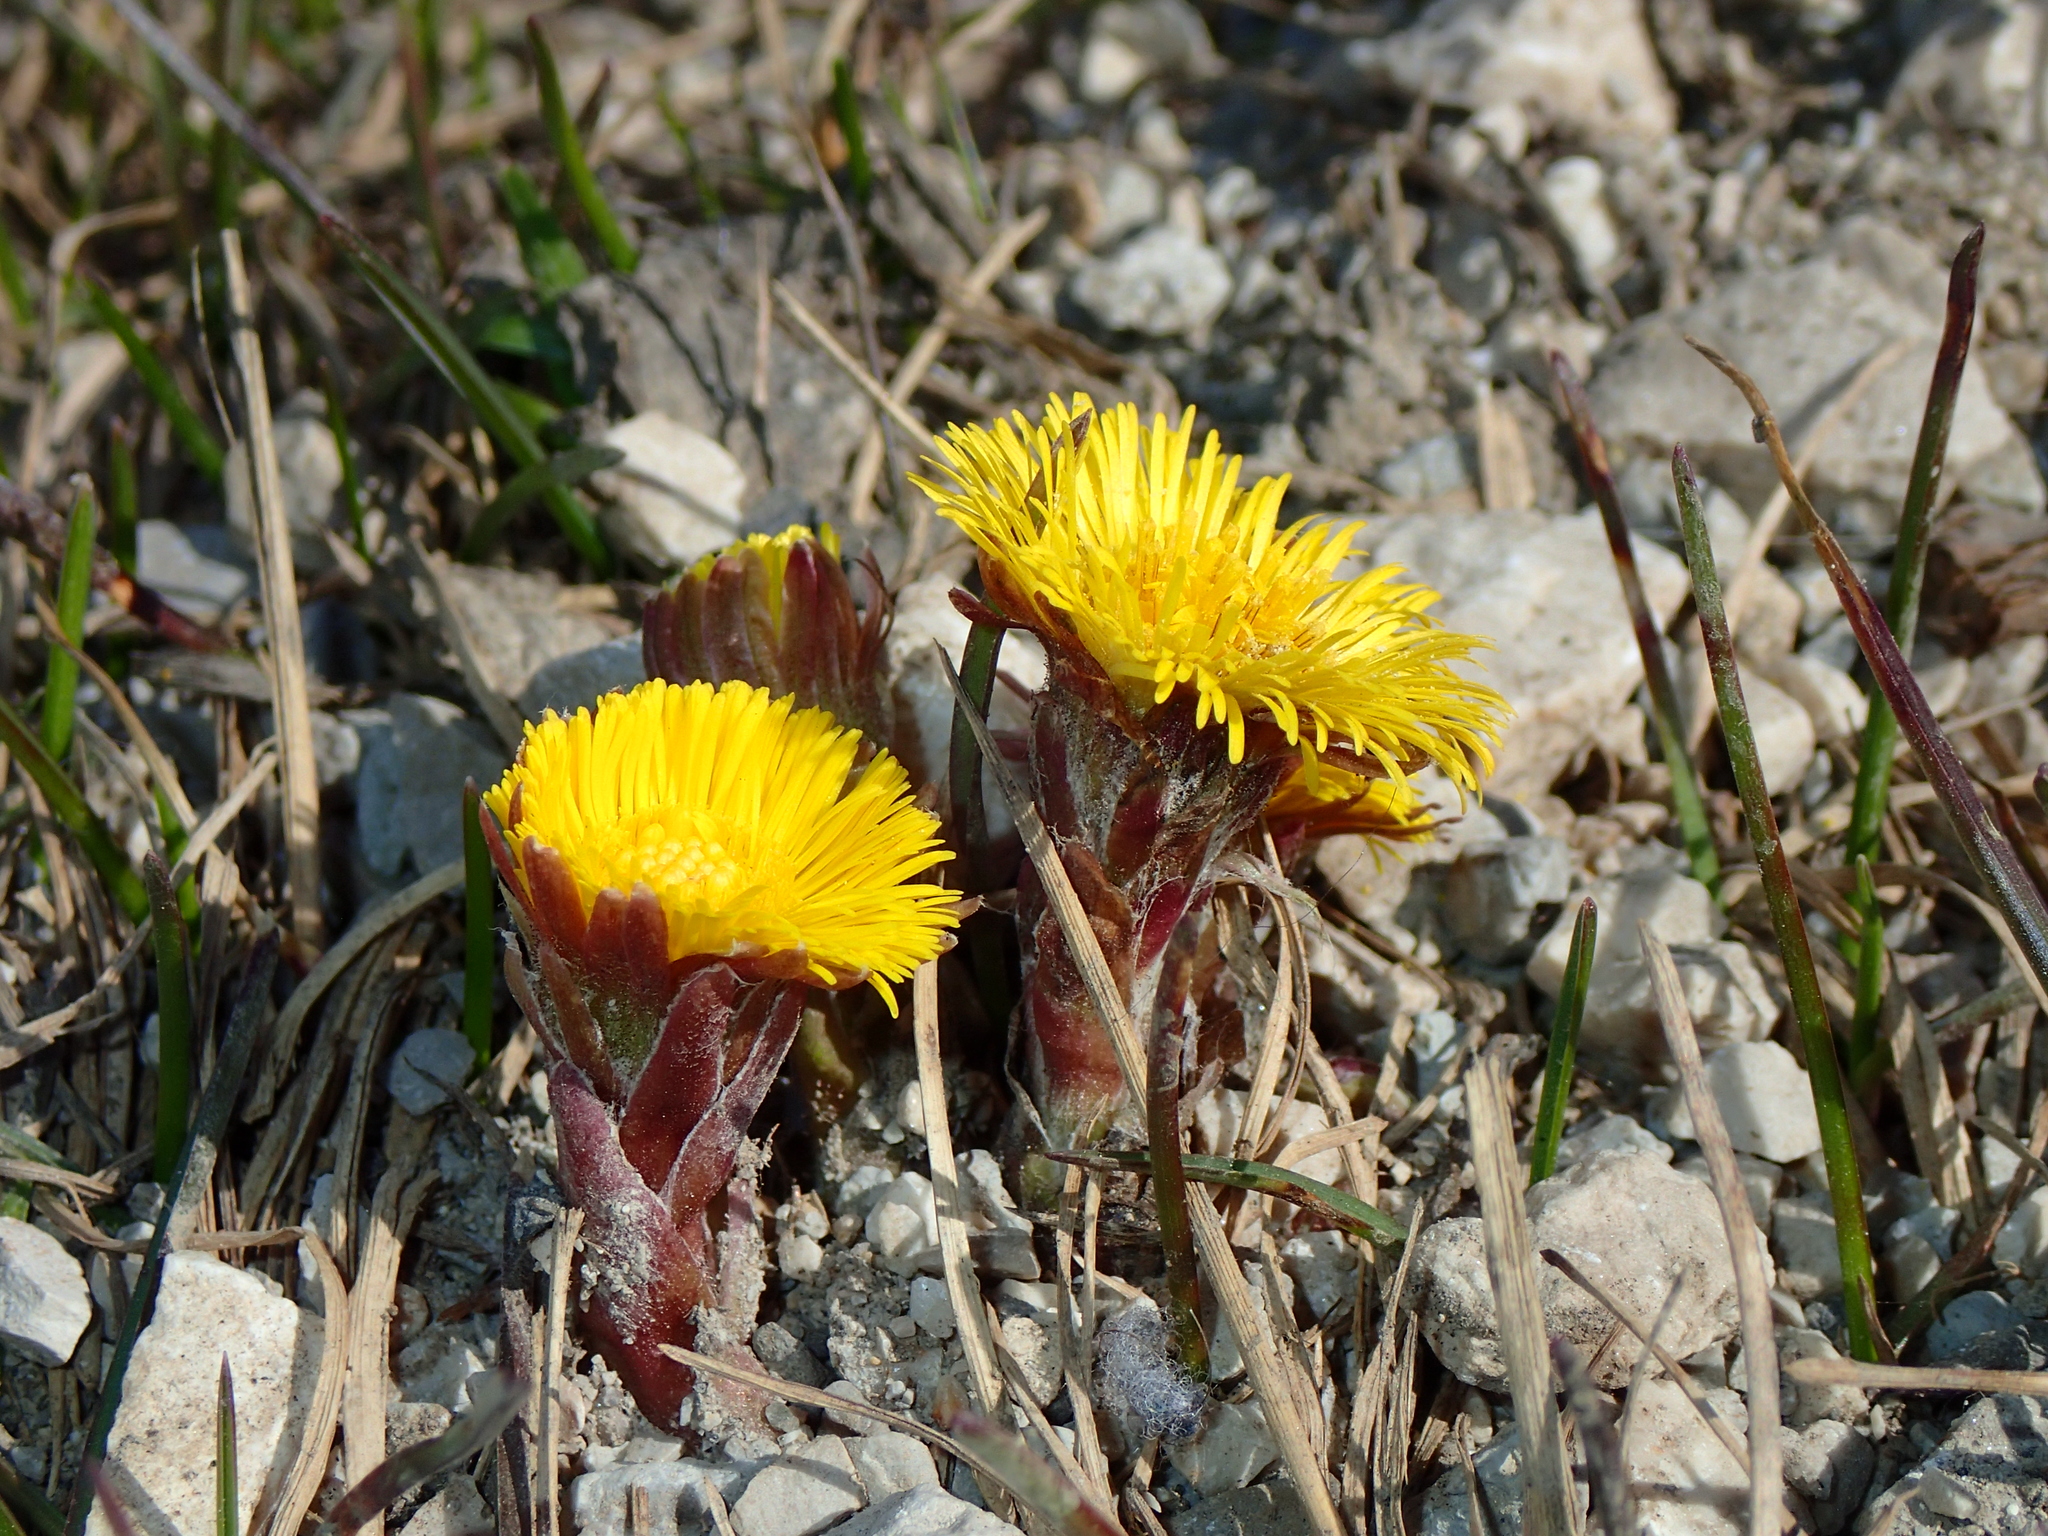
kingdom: Plantae
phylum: Tracheophyta
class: Magnoliopsida
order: Asterales
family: Asteraceae
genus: Tussilago
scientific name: Tussilago farfara
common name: Coltsfoot
